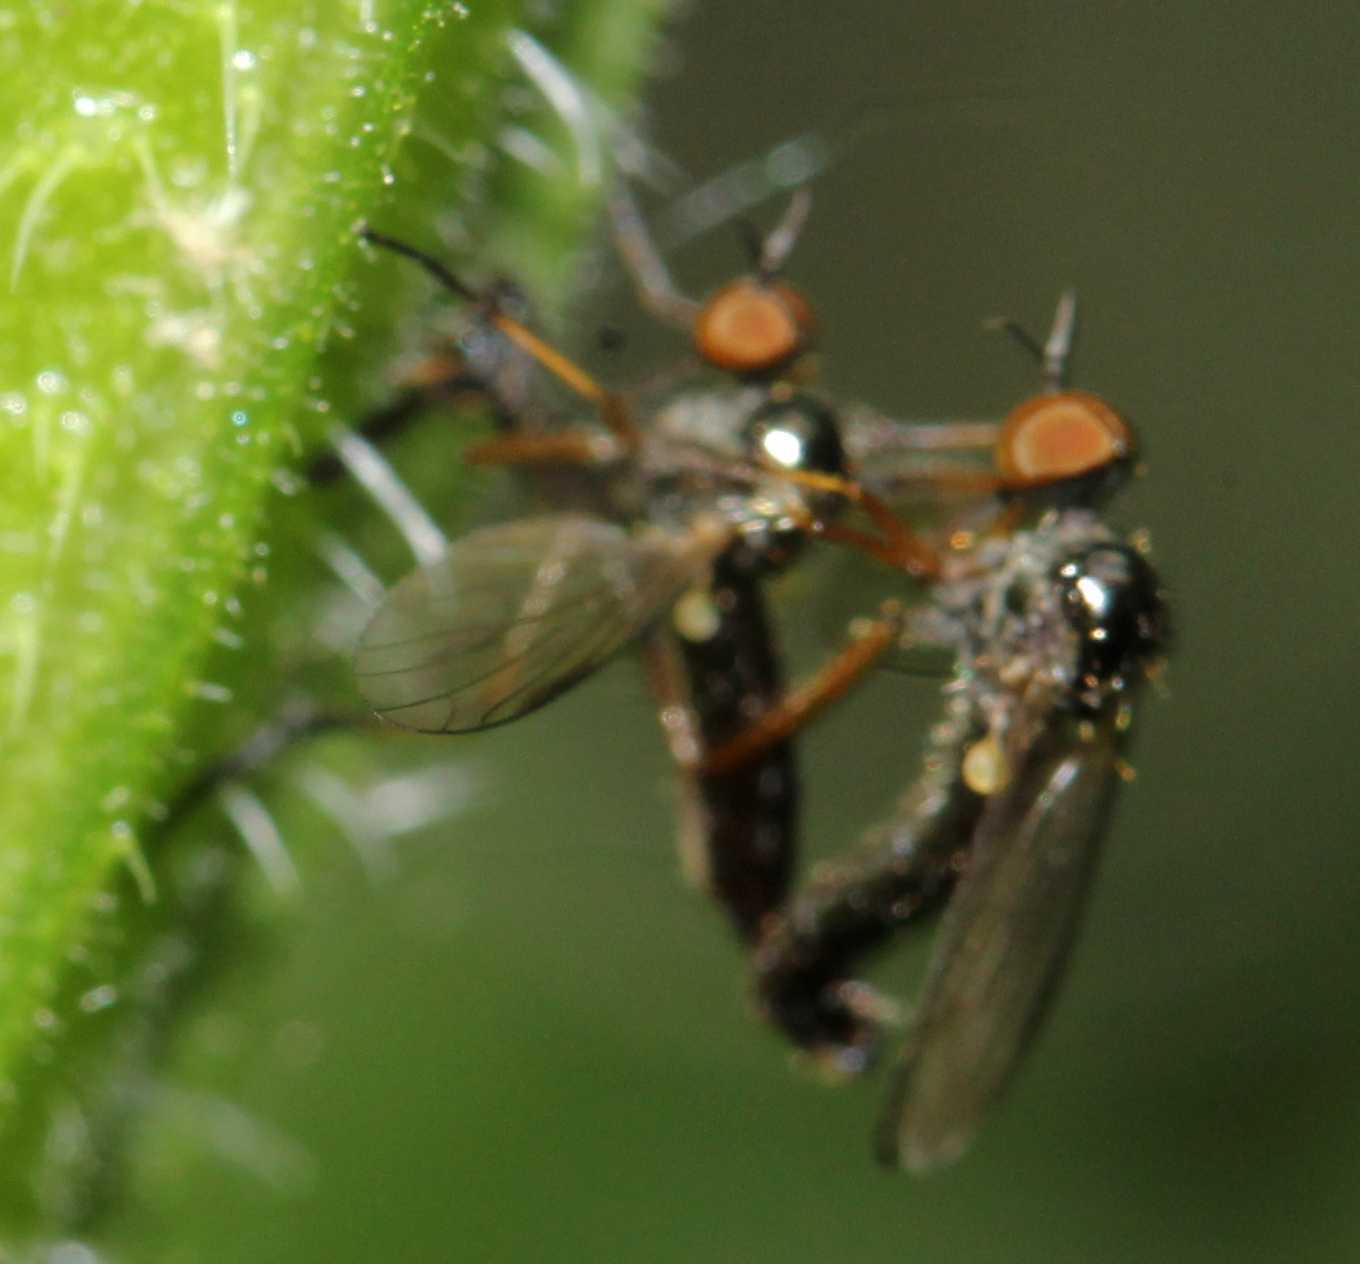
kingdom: Animalia
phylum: Arthropoda
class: Insecta
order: Diptera
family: Empididae
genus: Empis
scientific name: Empis nigritarsis
